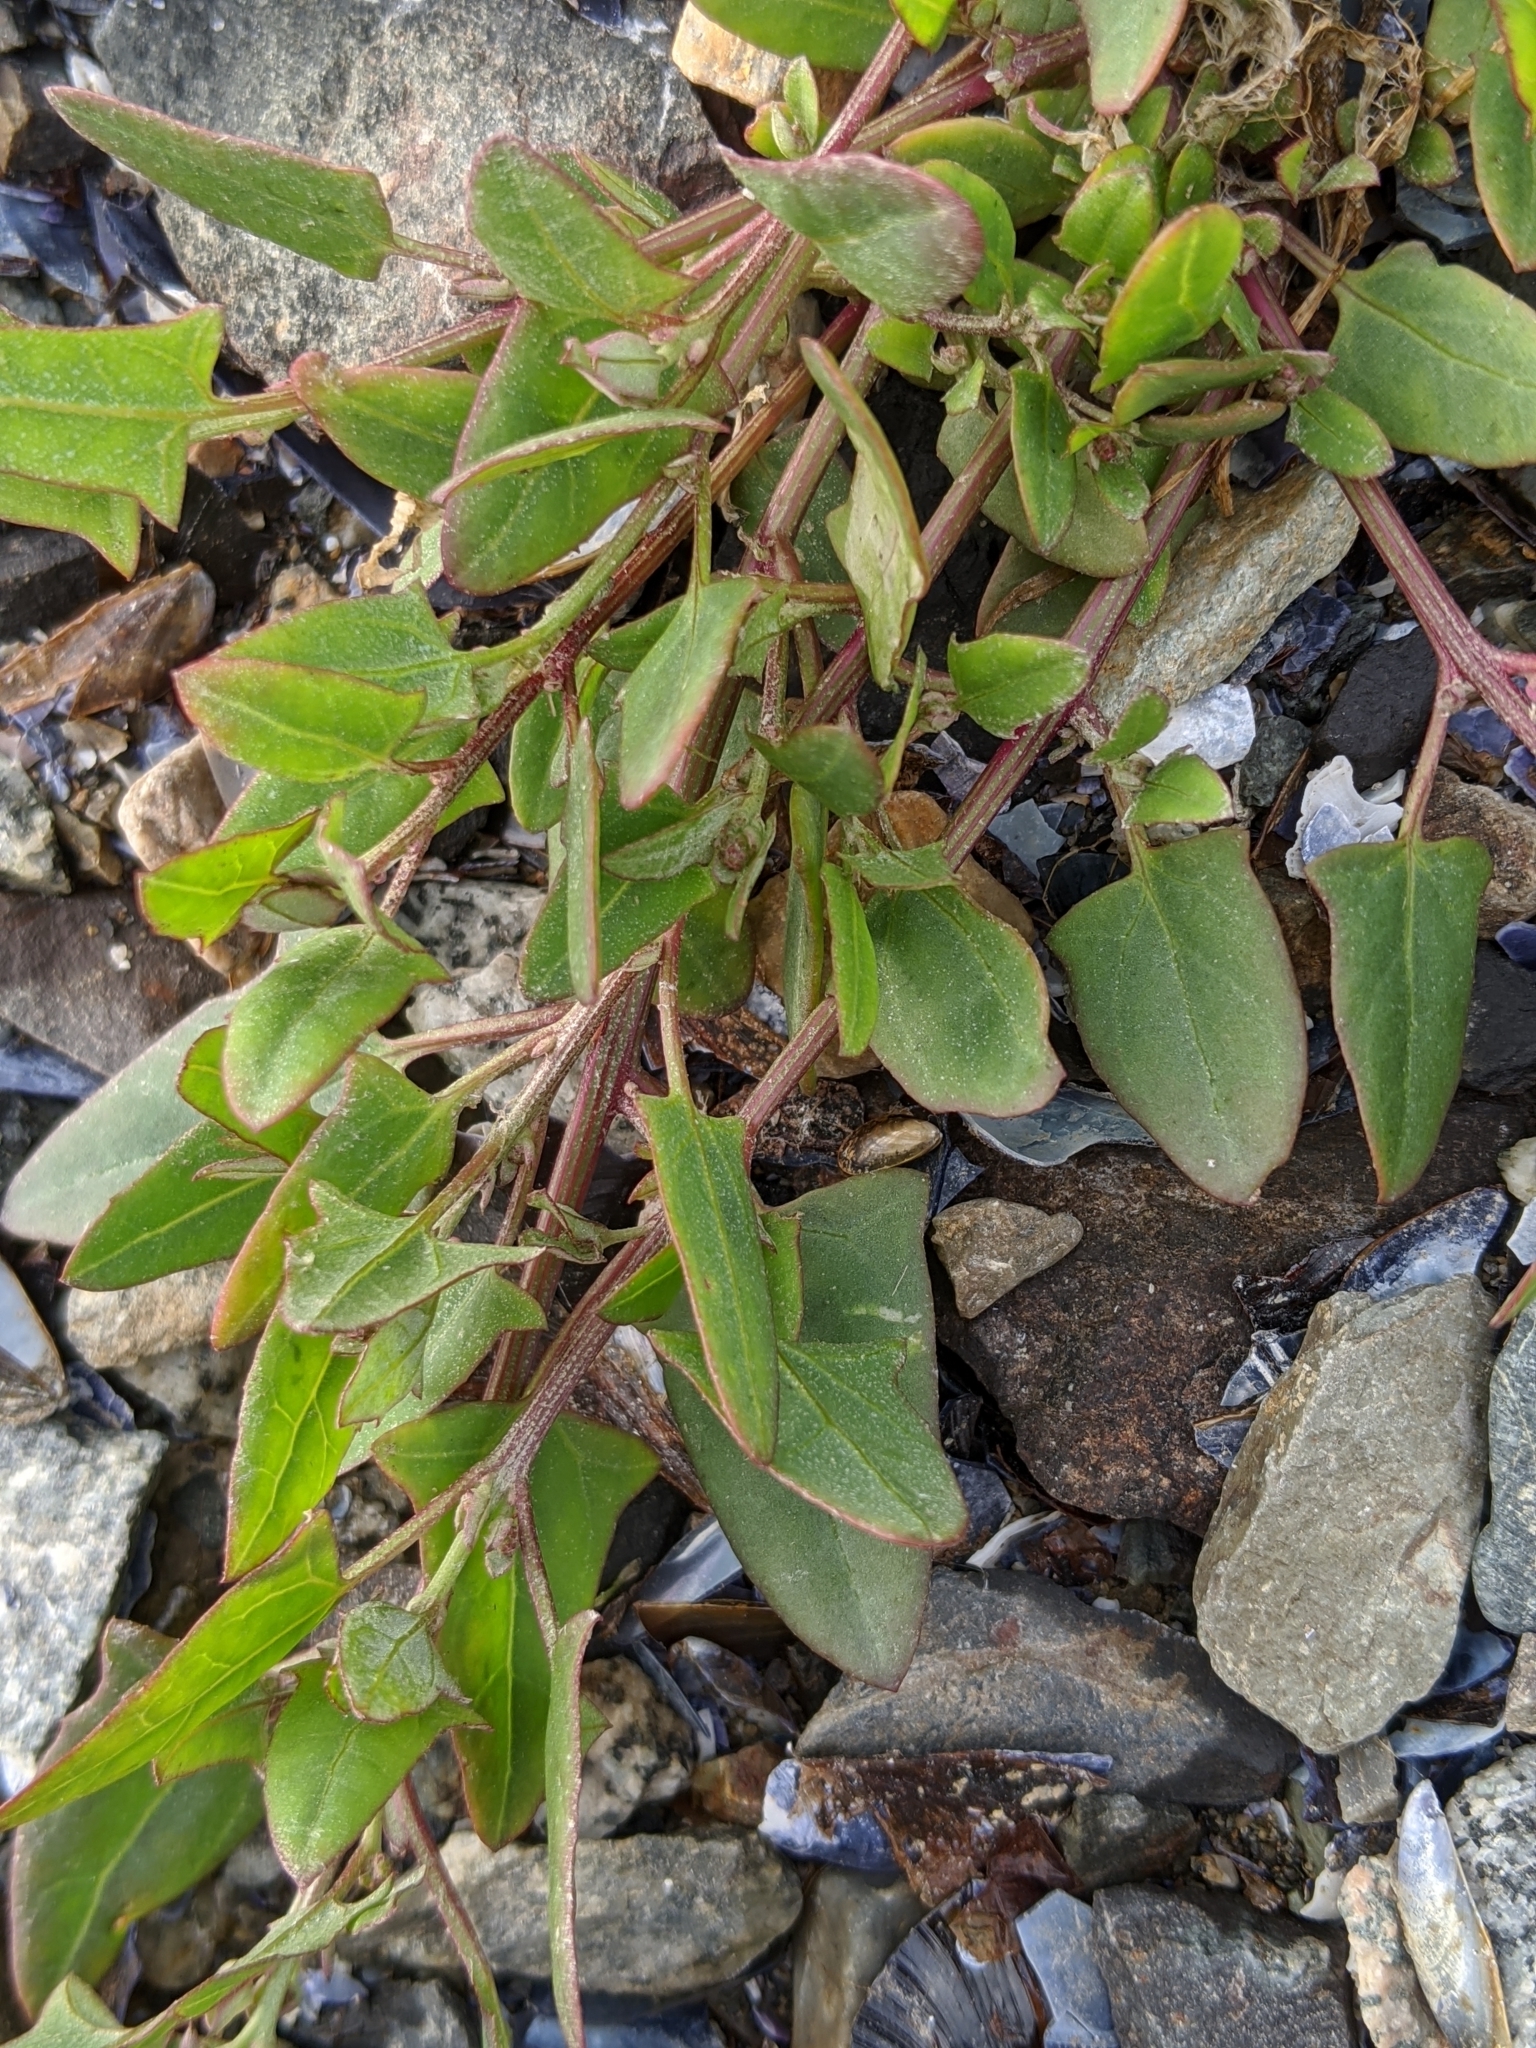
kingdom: Plantae
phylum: Tracheophyta
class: Magnoliopsida
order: Caryophyllales
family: Amaranthaceae
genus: Atriplex
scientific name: Atriplex prostrata
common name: Spear-leaved orache
